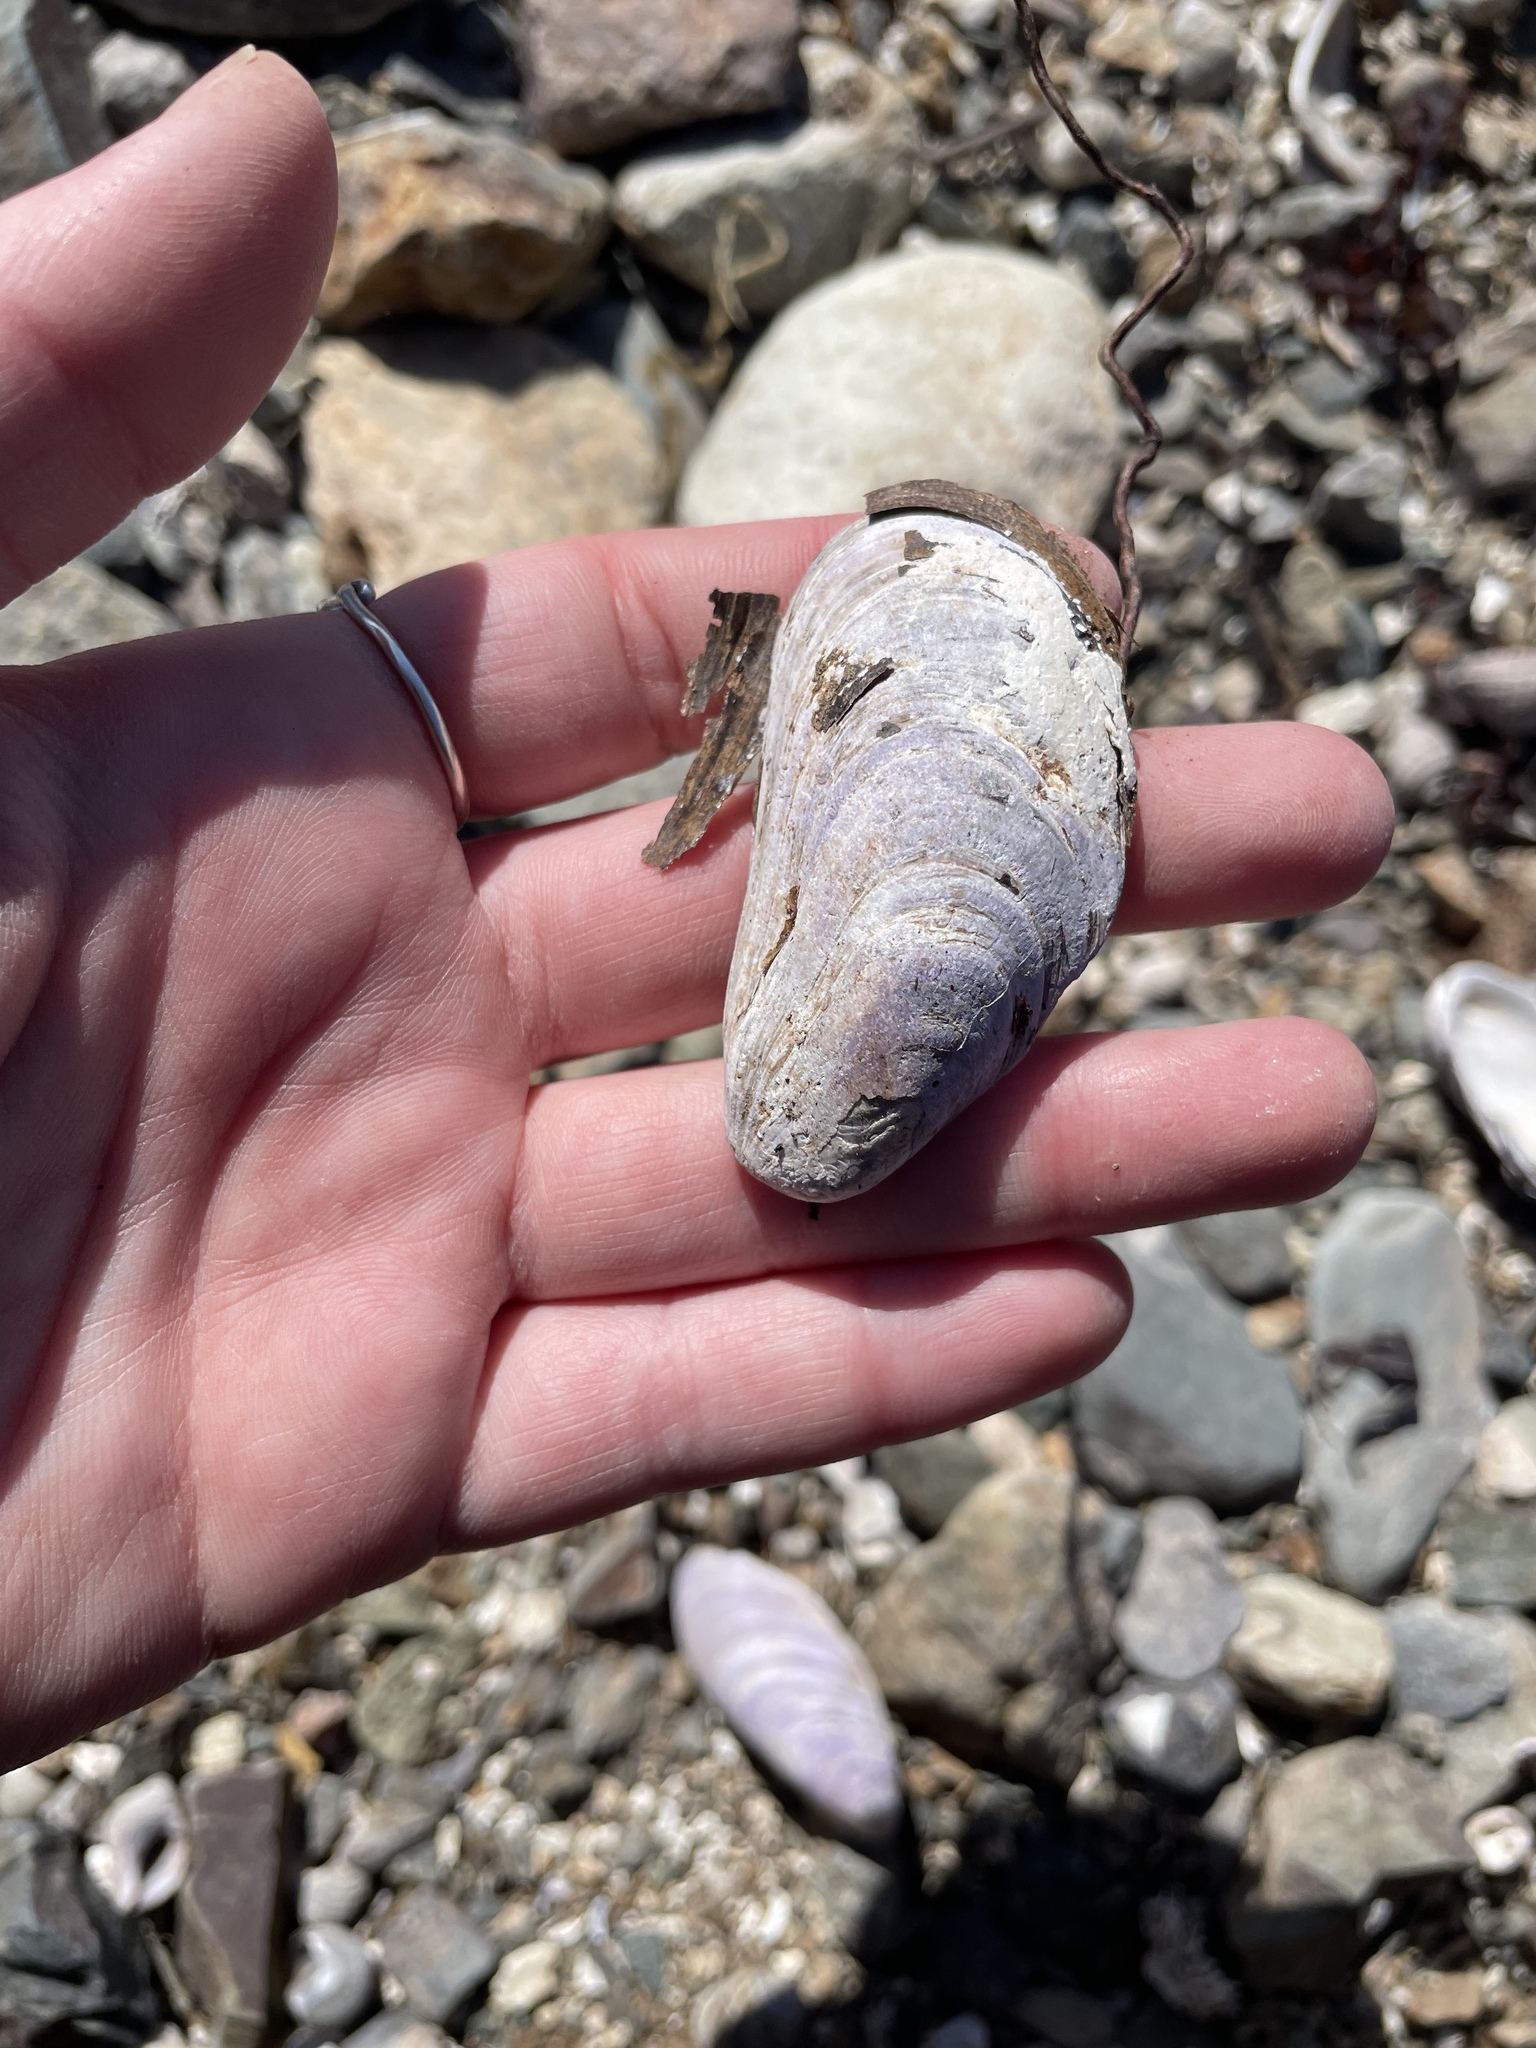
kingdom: Animalia
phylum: Mollusca
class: Bivalvia
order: Mytilida
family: Mytilidae
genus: Modiolus
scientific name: Modiolus modiolus
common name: Horse-mussel
